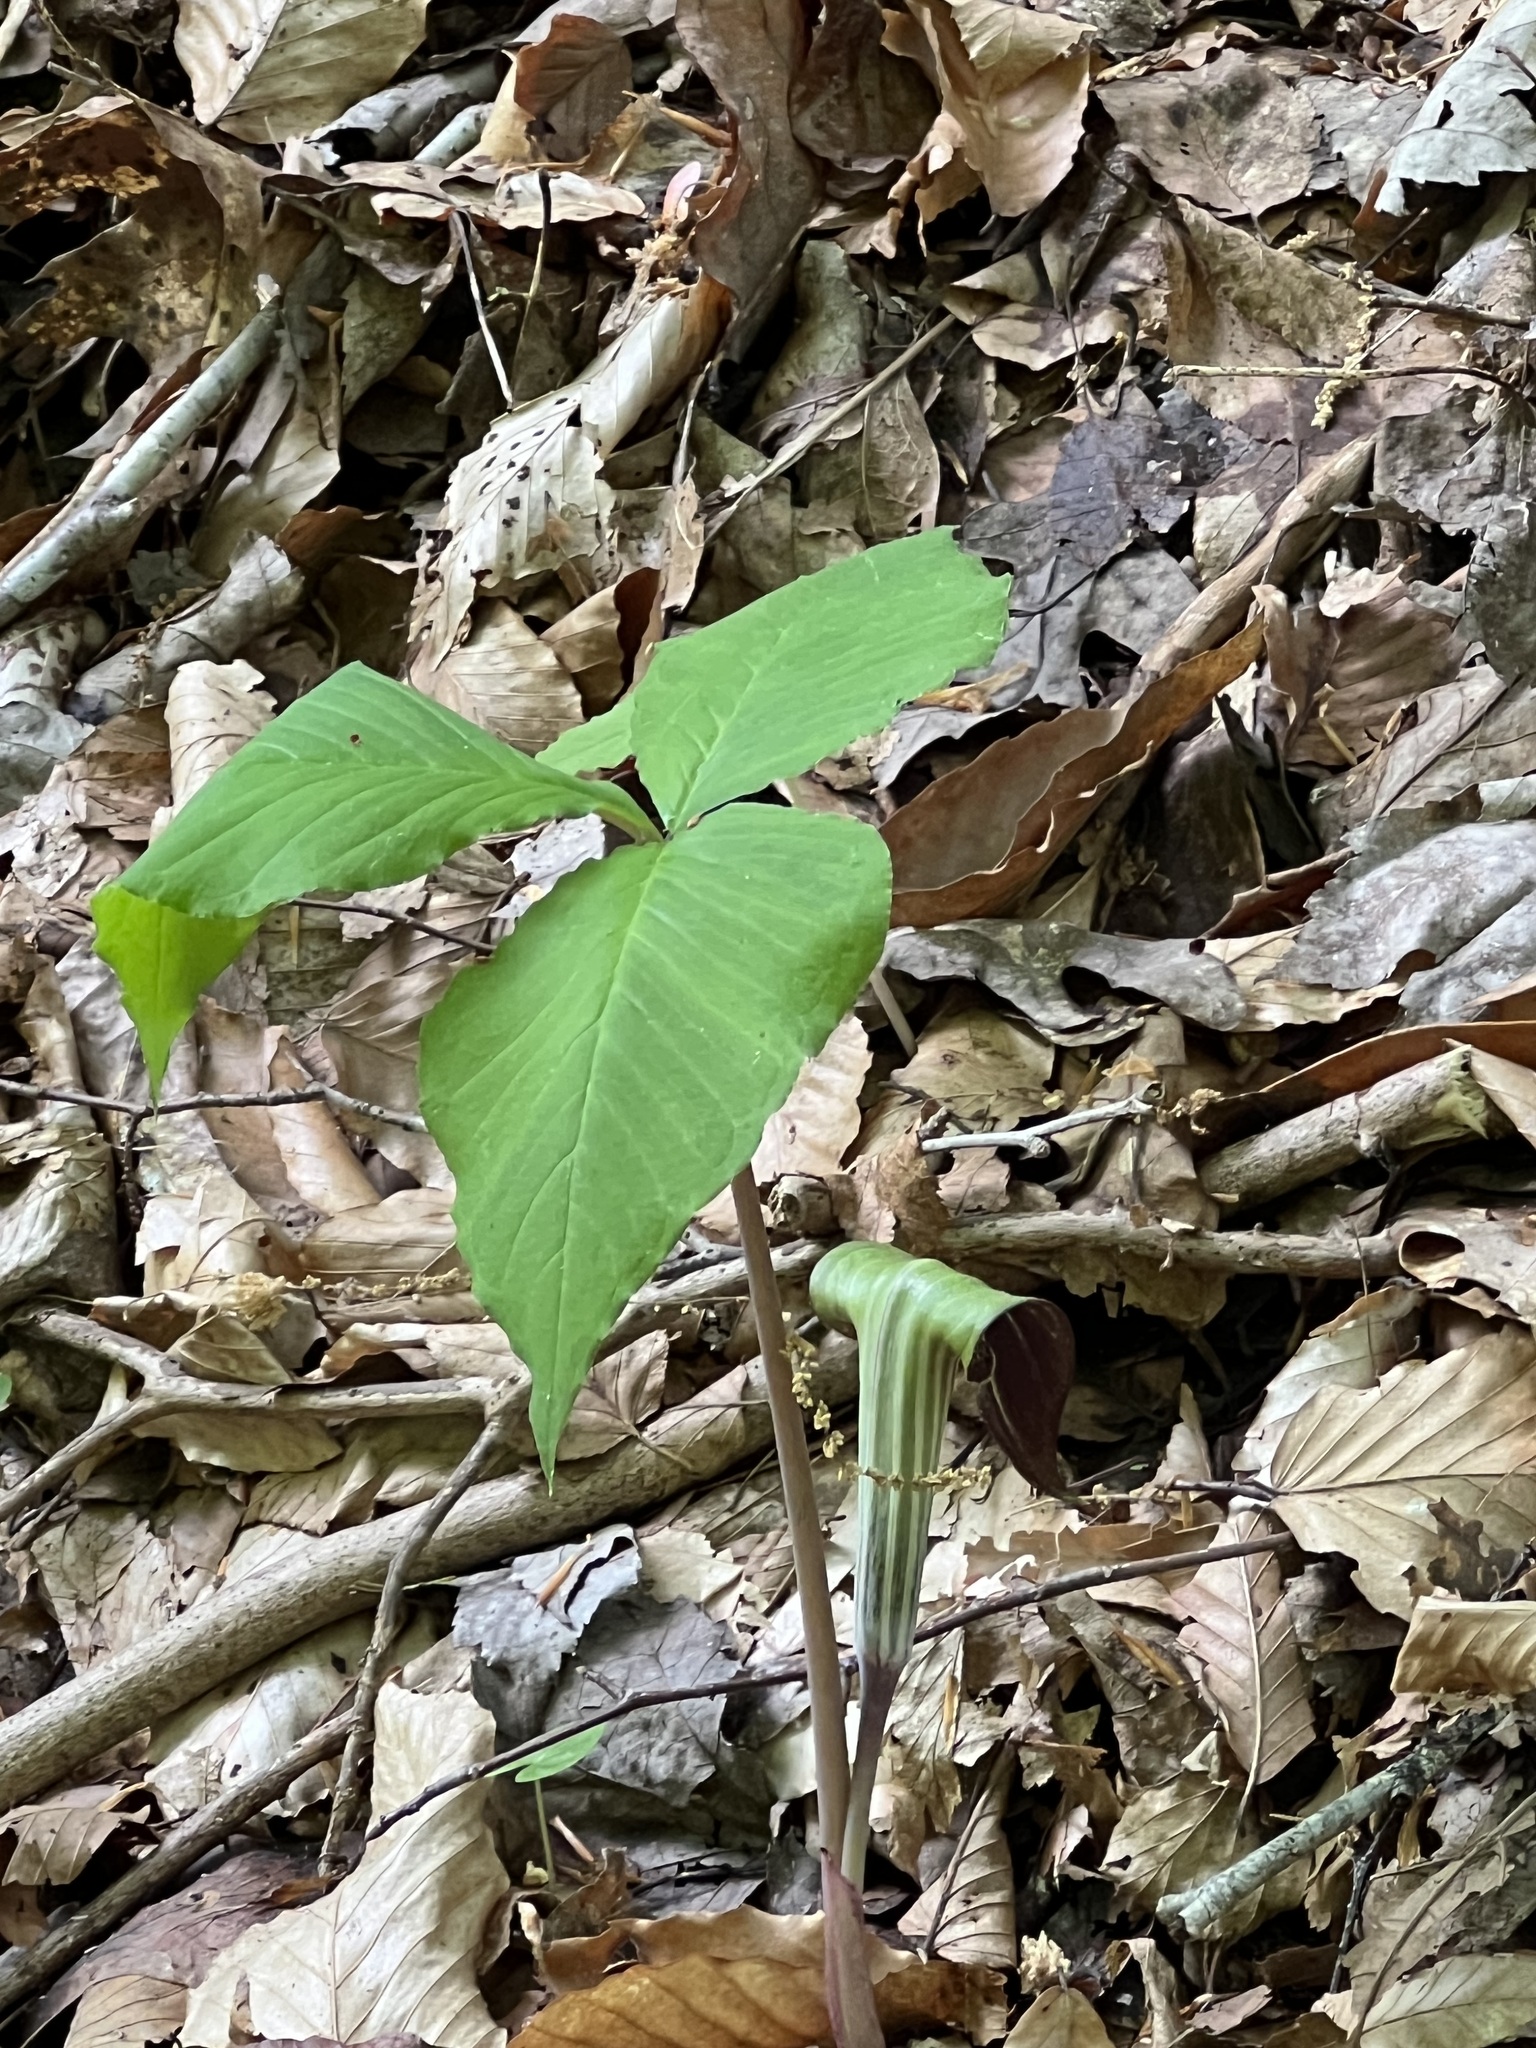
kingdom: Plantae
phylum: Tracheophyta
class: Liliopsida
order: Alismatales
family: Araceae
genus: Arisaema
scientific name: Arisaema triphyllum
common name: Jack-in-the-pulpit
